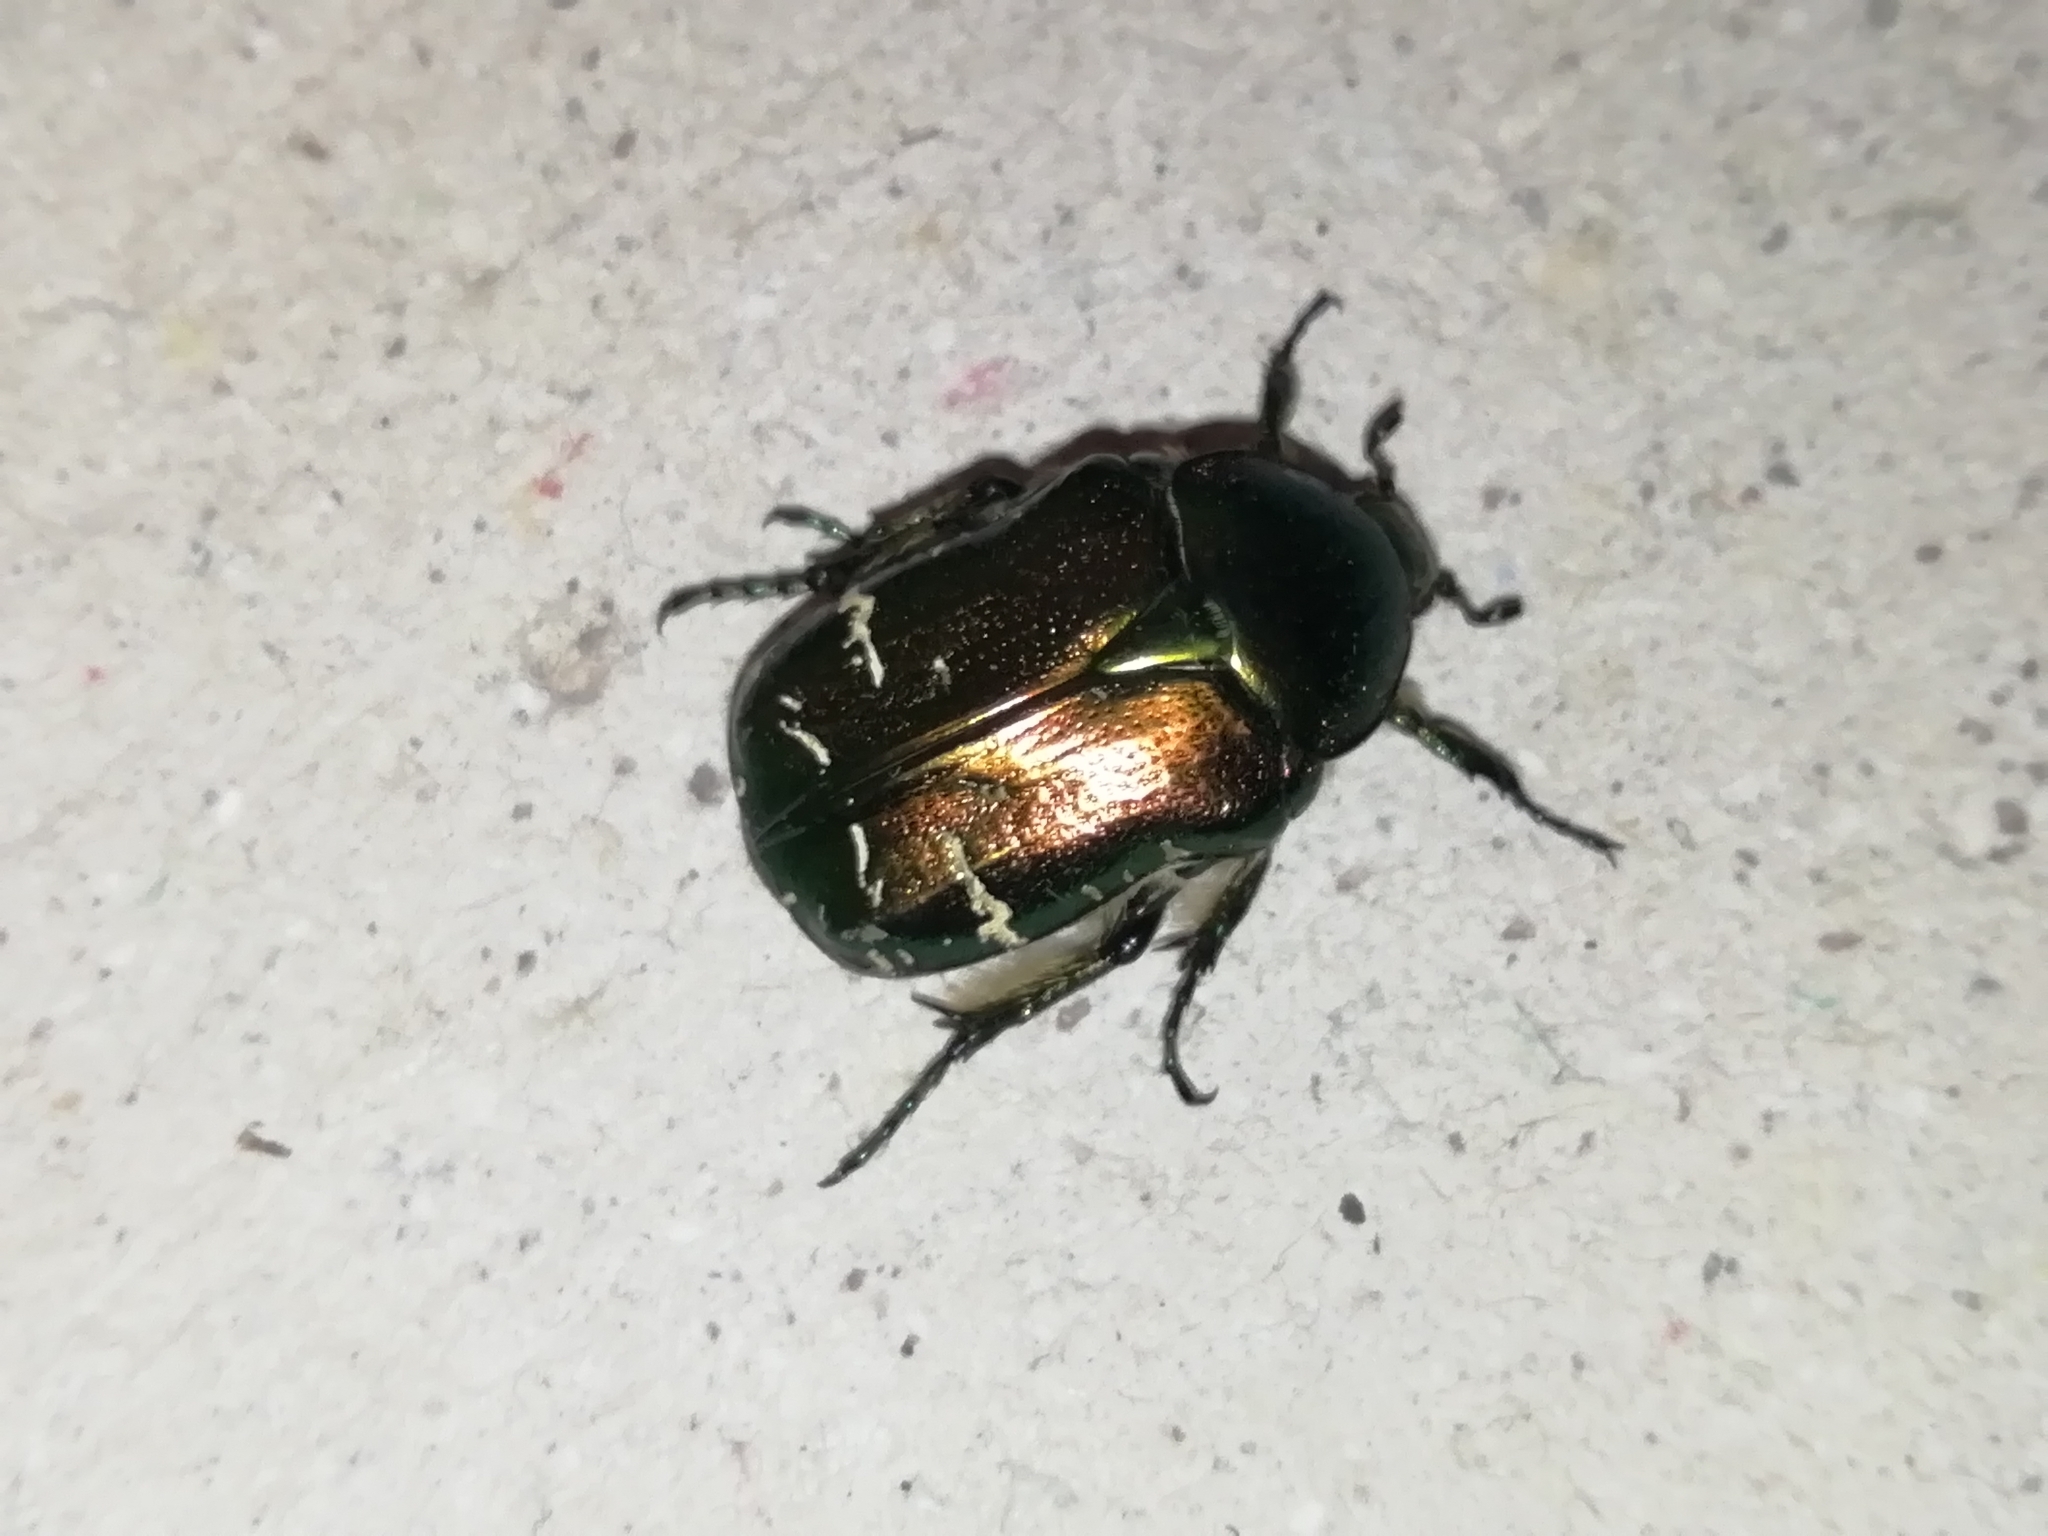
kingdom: Animalia
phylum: Arthropoda
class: Insecta
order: Coleoptera
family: Scarabaeidae
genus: Cetonia
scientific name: Cetonia aurata
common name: Rose chafer
